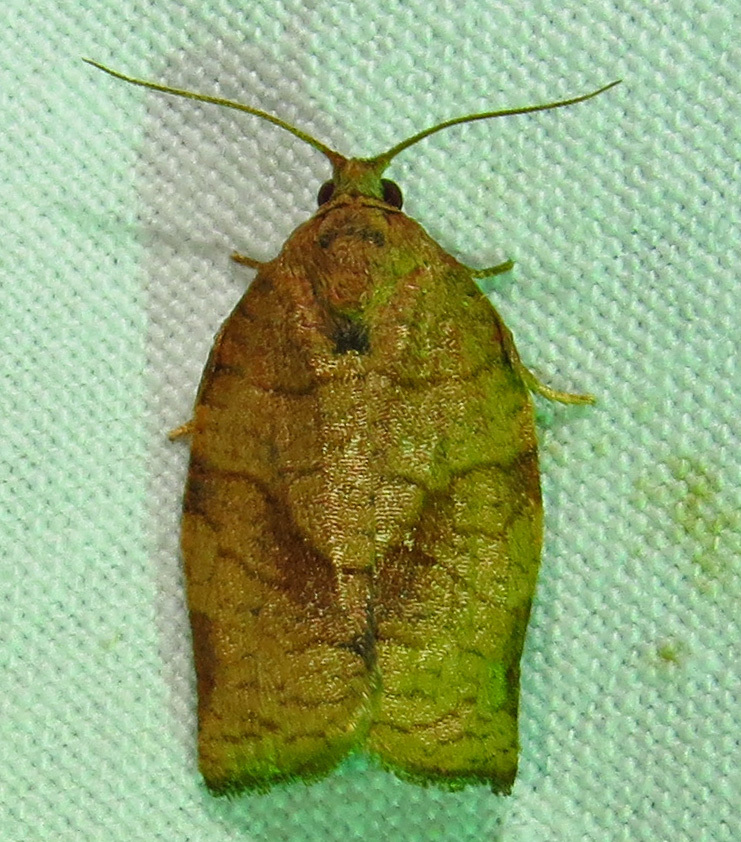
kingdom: Animalia
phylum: Arthropoda
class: Insecta
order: Lepidoptera
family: Tortricidae
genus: Choristoneura
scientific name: Choristoneura rosaceana
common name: Oblique-banded leafroller moth
